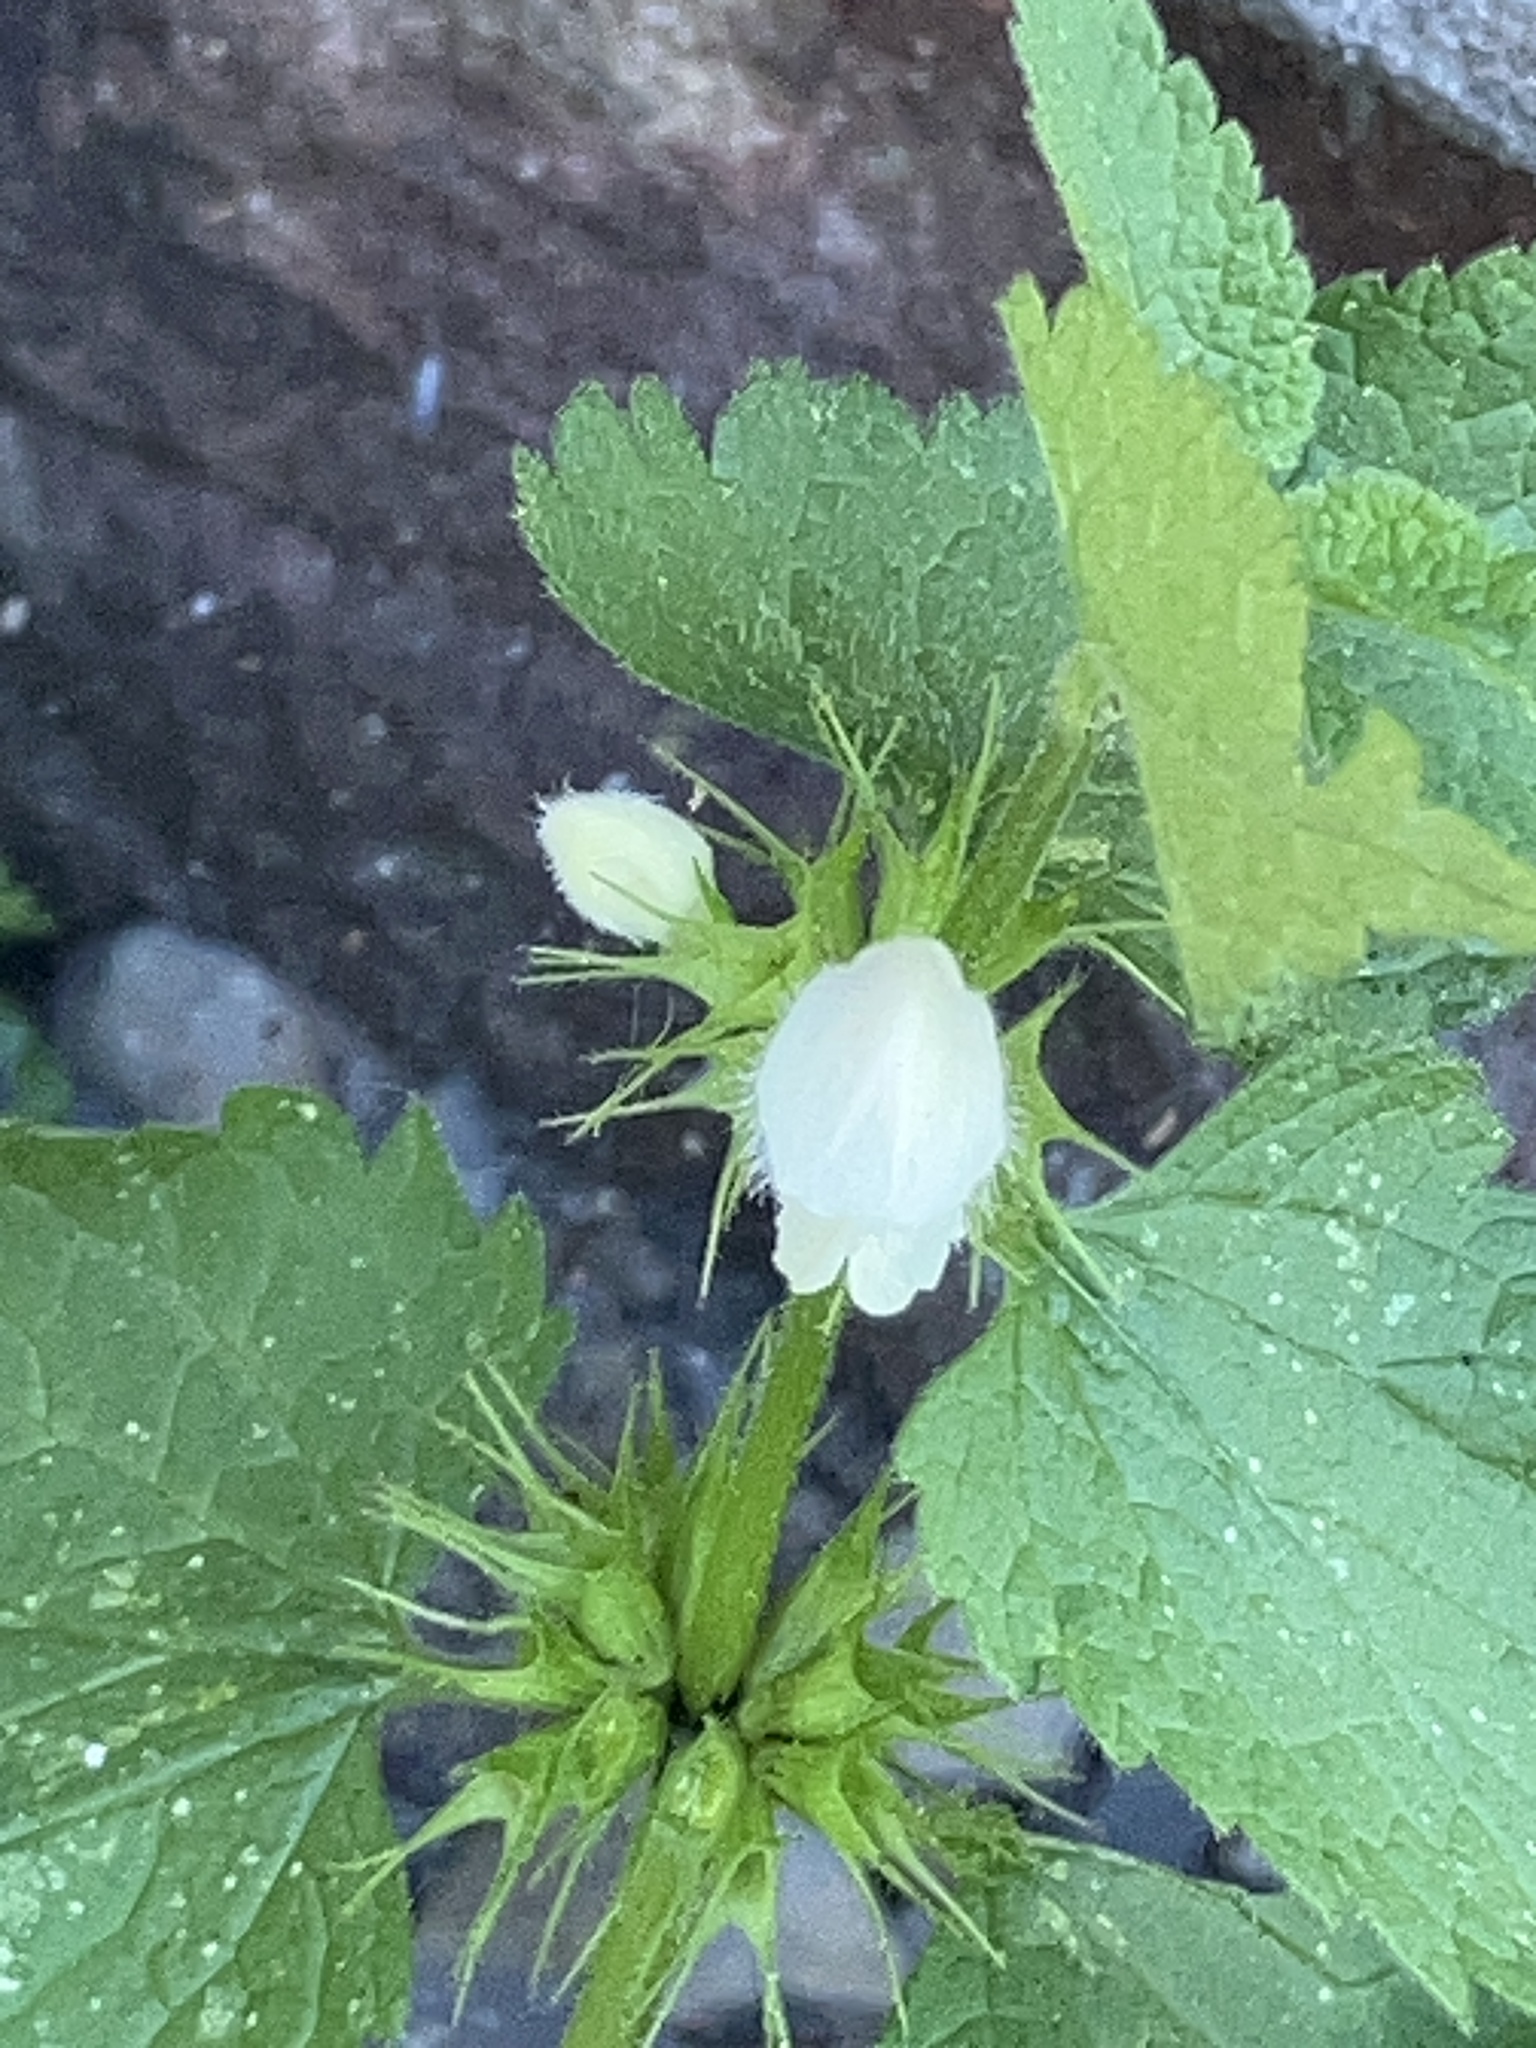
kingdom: Plantae
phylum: Tracheophyta
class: Magnoliopsida
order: Lamiales
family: Lamiaceae
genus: Lamium
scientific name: Lamium album
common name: White dead-nettle
